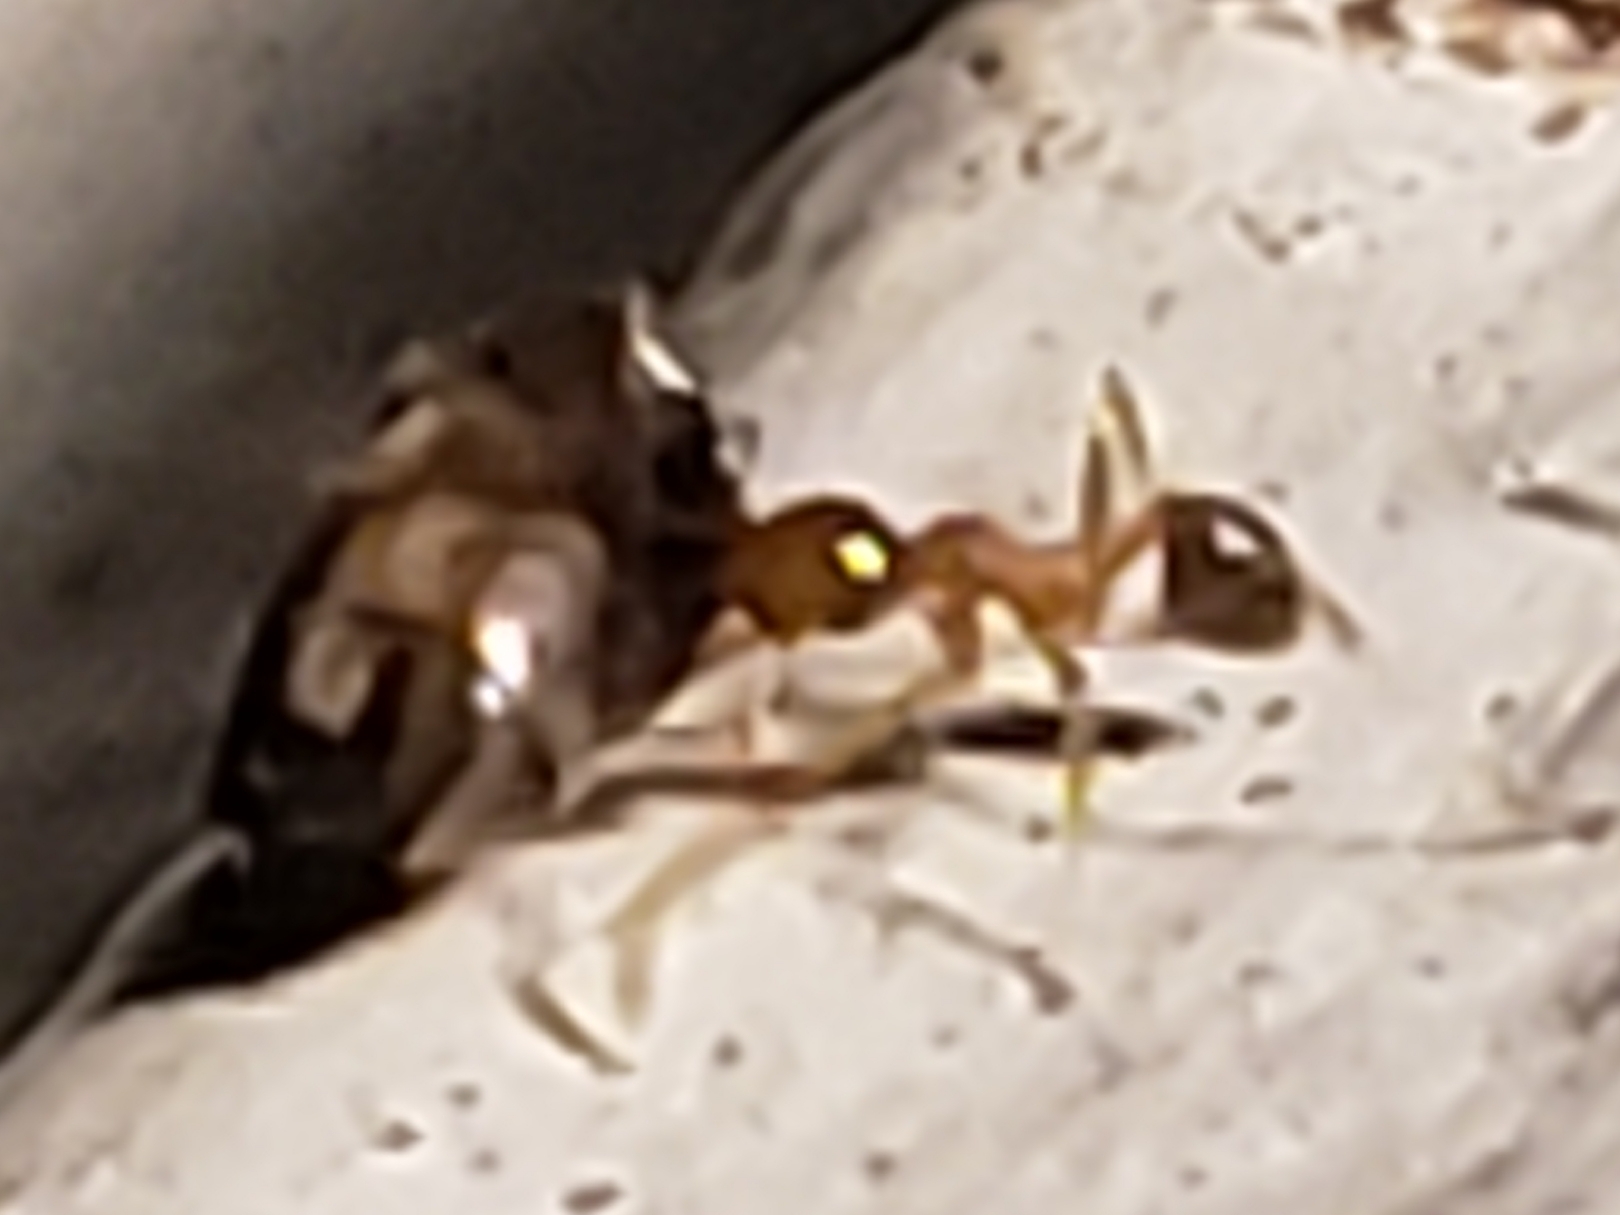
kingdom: Animalia
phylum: Arthropoda
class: Insecta
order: Hymenoptera
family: Formicidae
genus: Pheidole
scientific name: Pheidole megacephala
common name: Bigheaded ant
